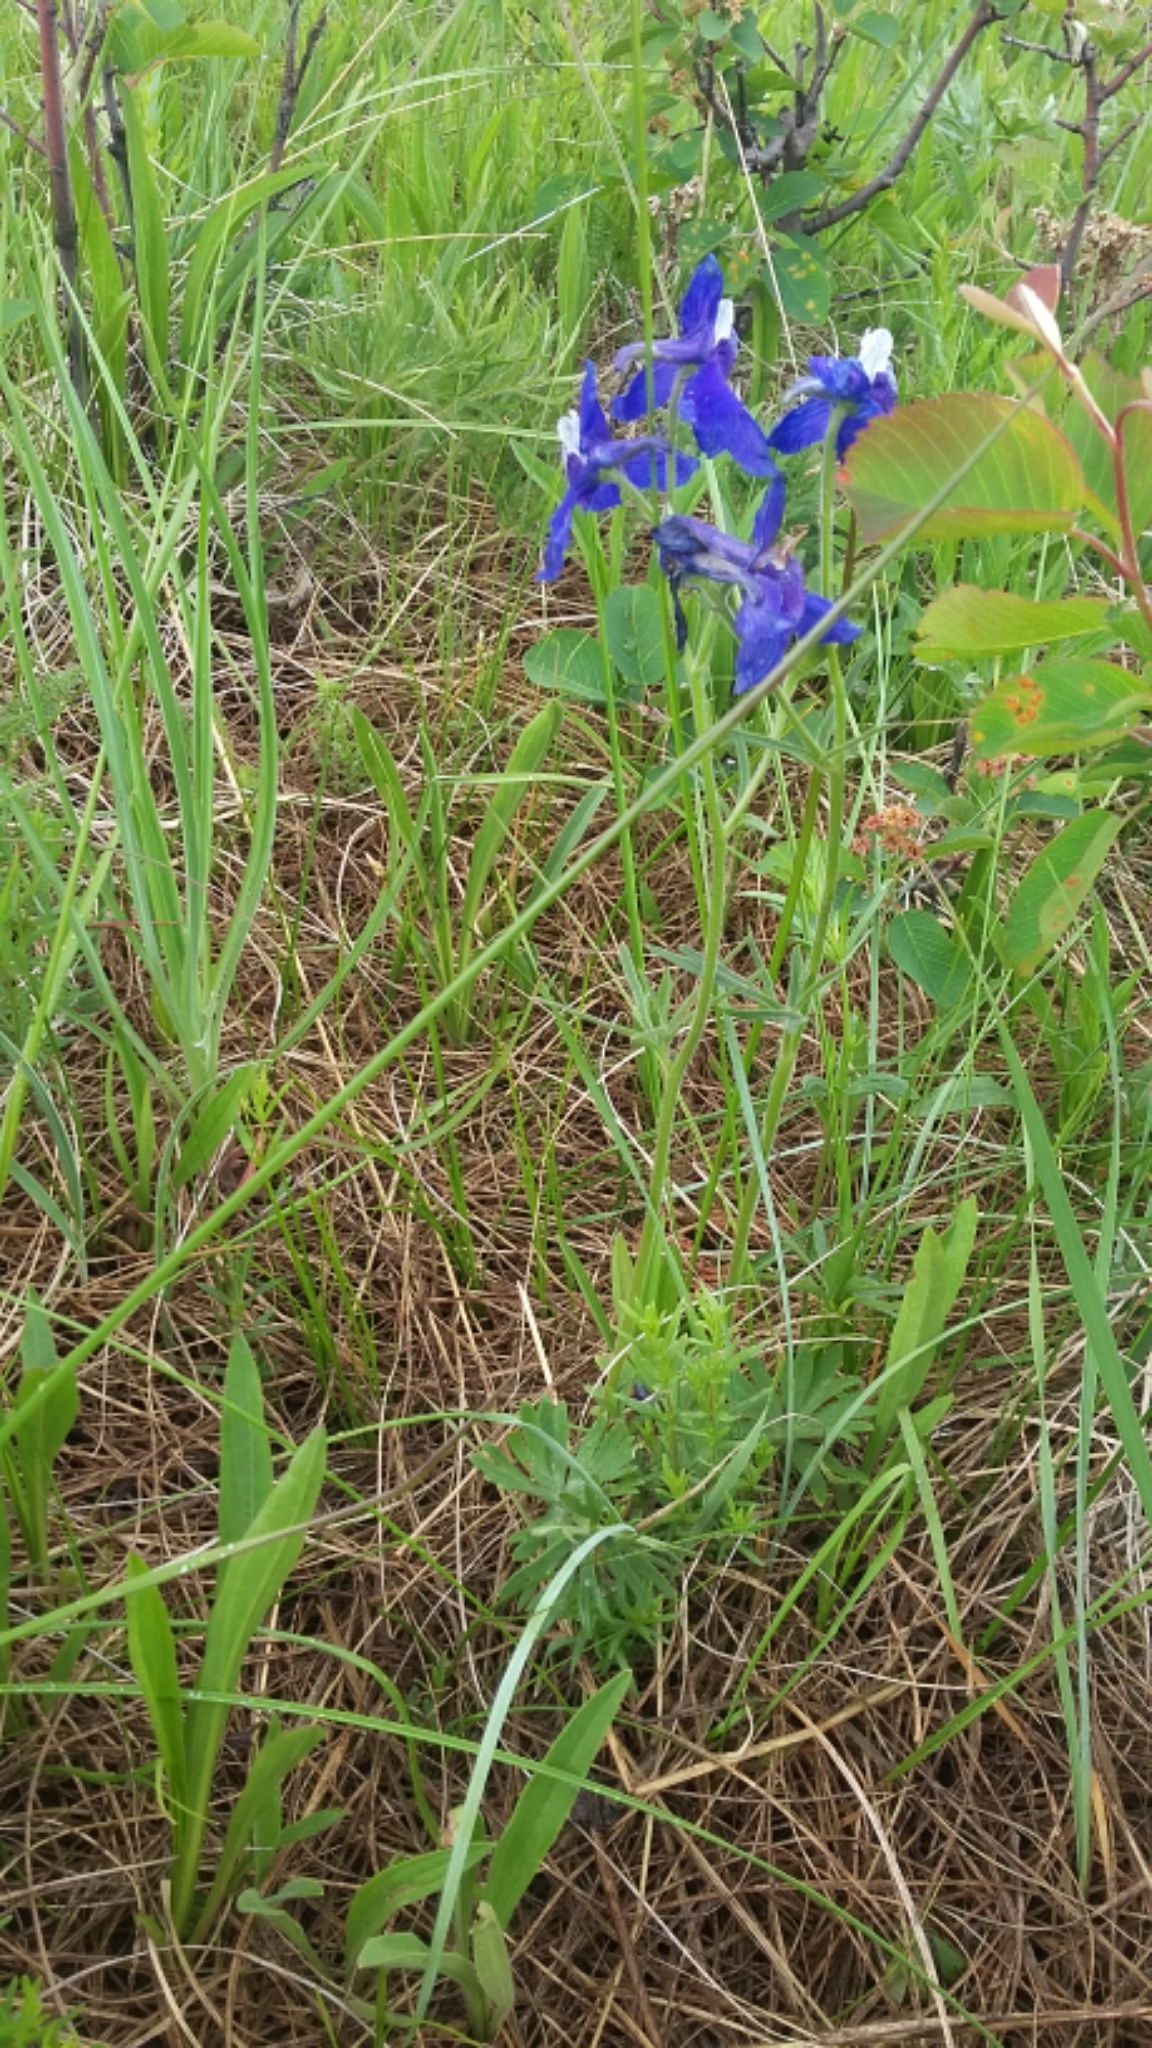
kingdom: Plantae
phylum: Tracheophyta
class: Magnoliopsida
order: Ranunculales
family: Ranunculaceae
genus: Delphinium
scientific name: Delphinium bicolor
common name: Low larkspur
